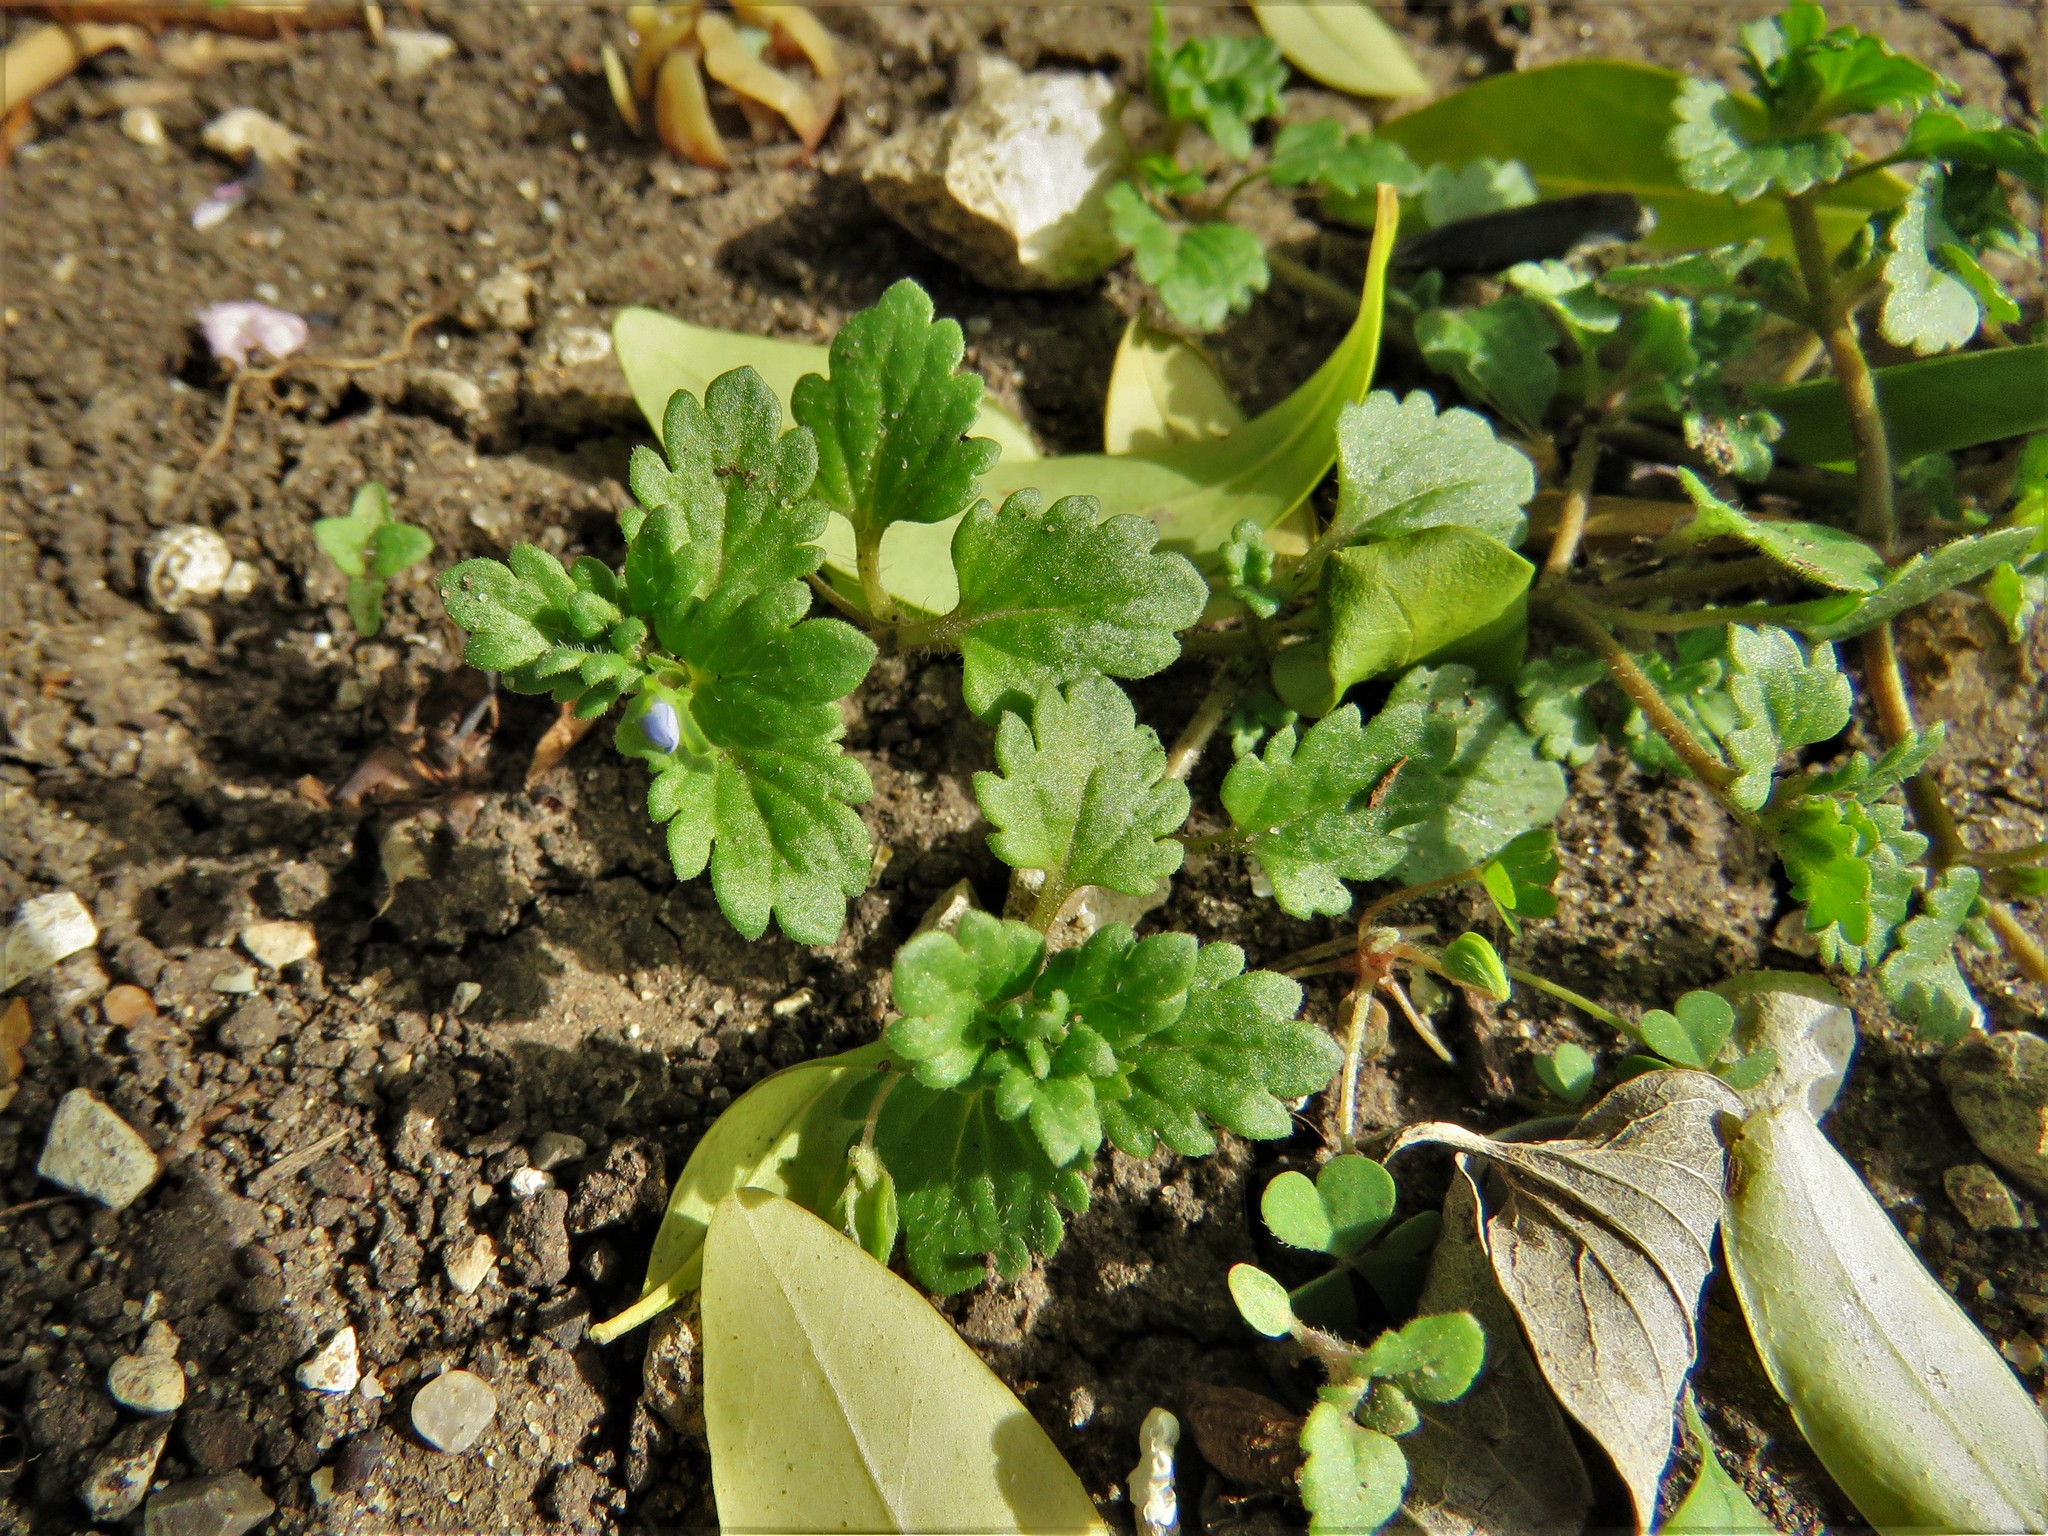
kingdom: Plantae
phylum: Tracheophyta
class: Magnoliopsida
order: Lamiales
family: Plantaginaceae
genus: Veronica
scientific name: Veronica polita
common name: Grey field-speedwell
